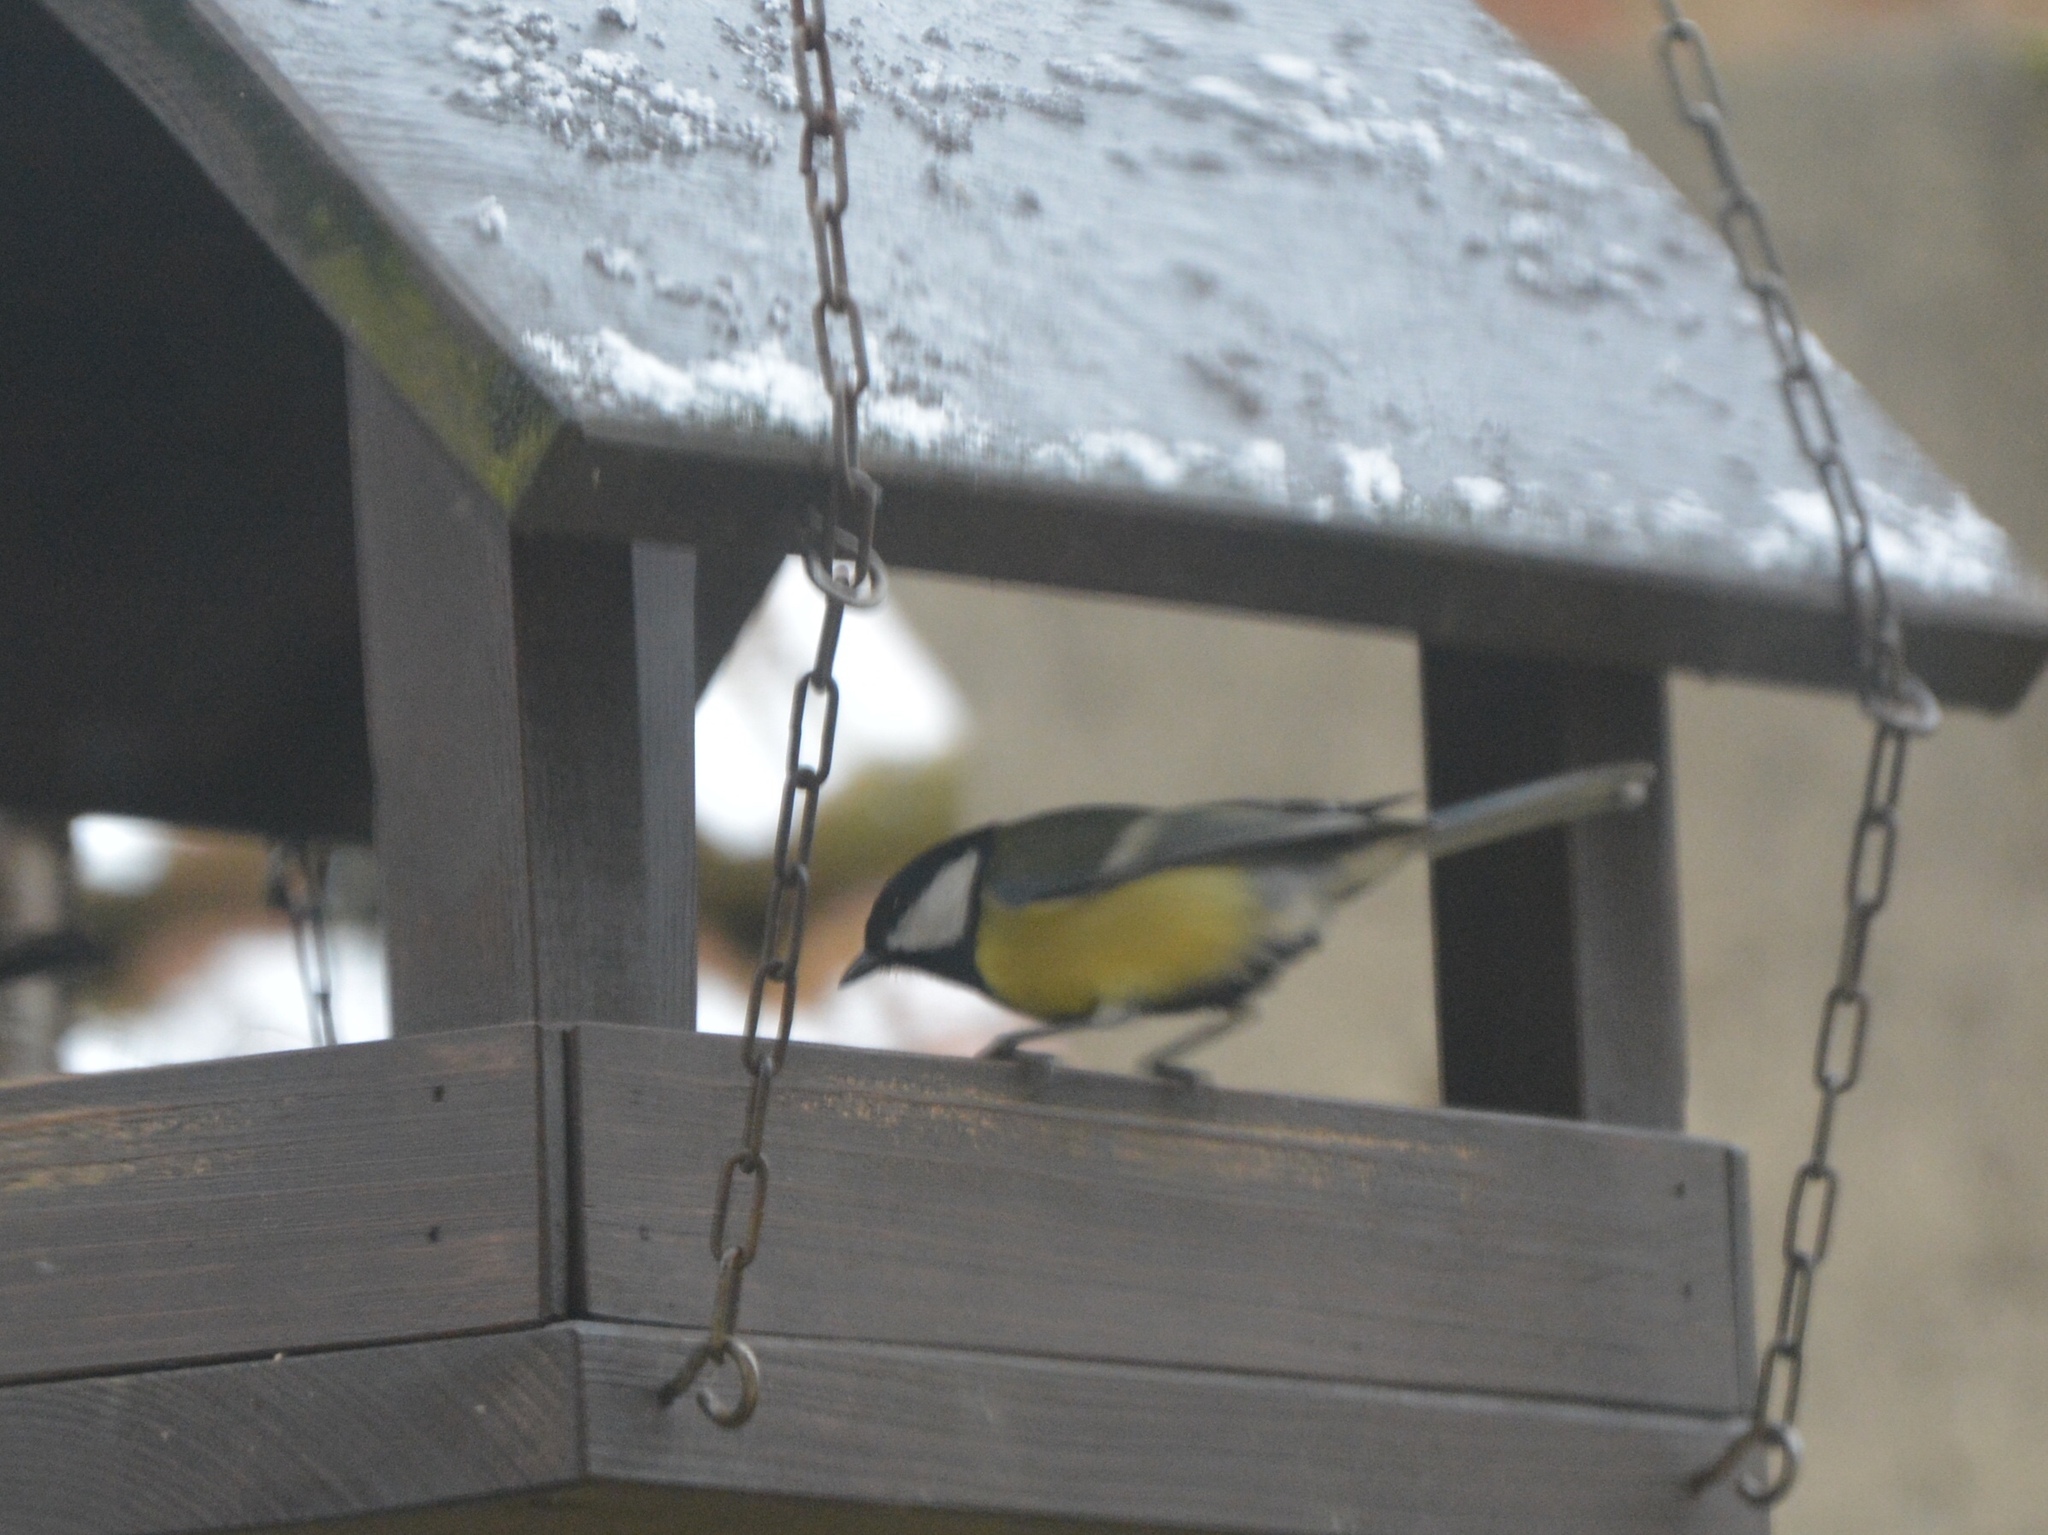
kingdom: Animalia
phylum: Chordata
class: Aves
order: Passeriformes
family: Paridae
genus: Parus
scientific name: Parus major
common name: Great tit
